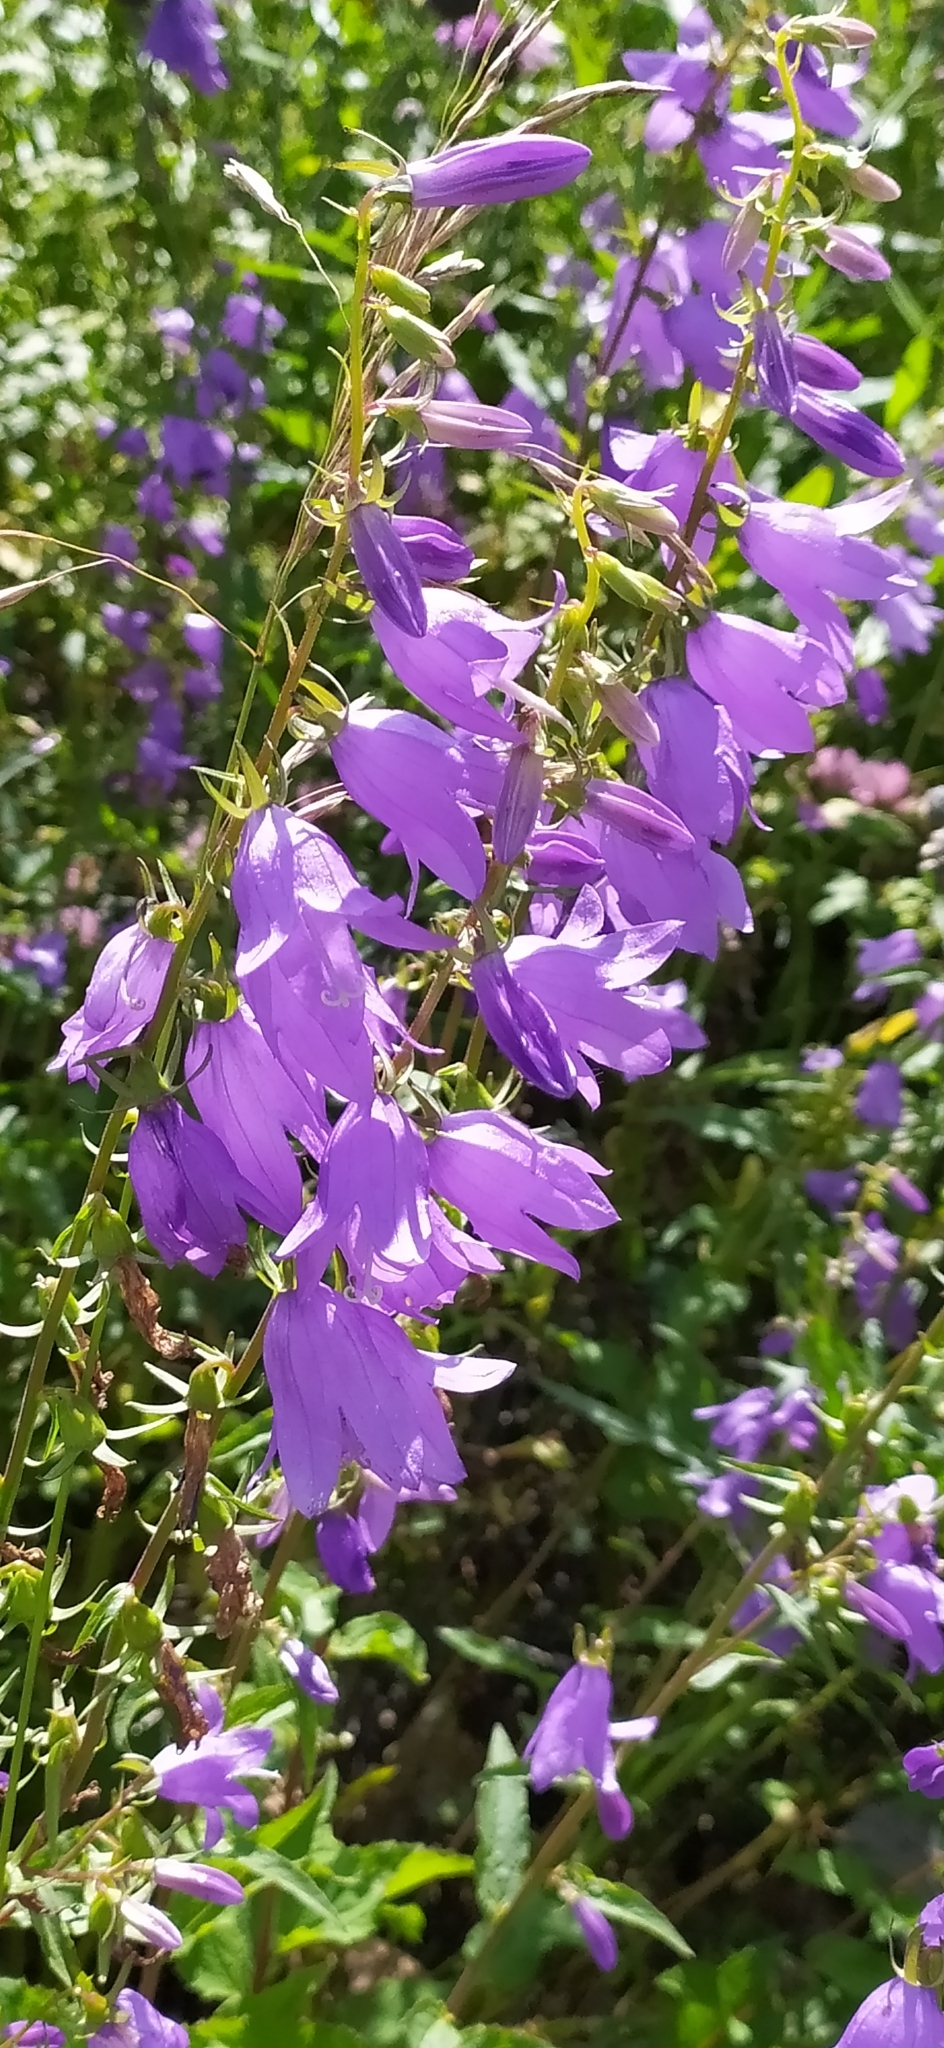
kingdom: Plantae
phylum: Tracheophyta
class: Magnoliopsida
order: Asterales
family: Campanulaceae
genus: Campanula
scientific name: Campanula rapunculoides
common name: Creeping bellflower
